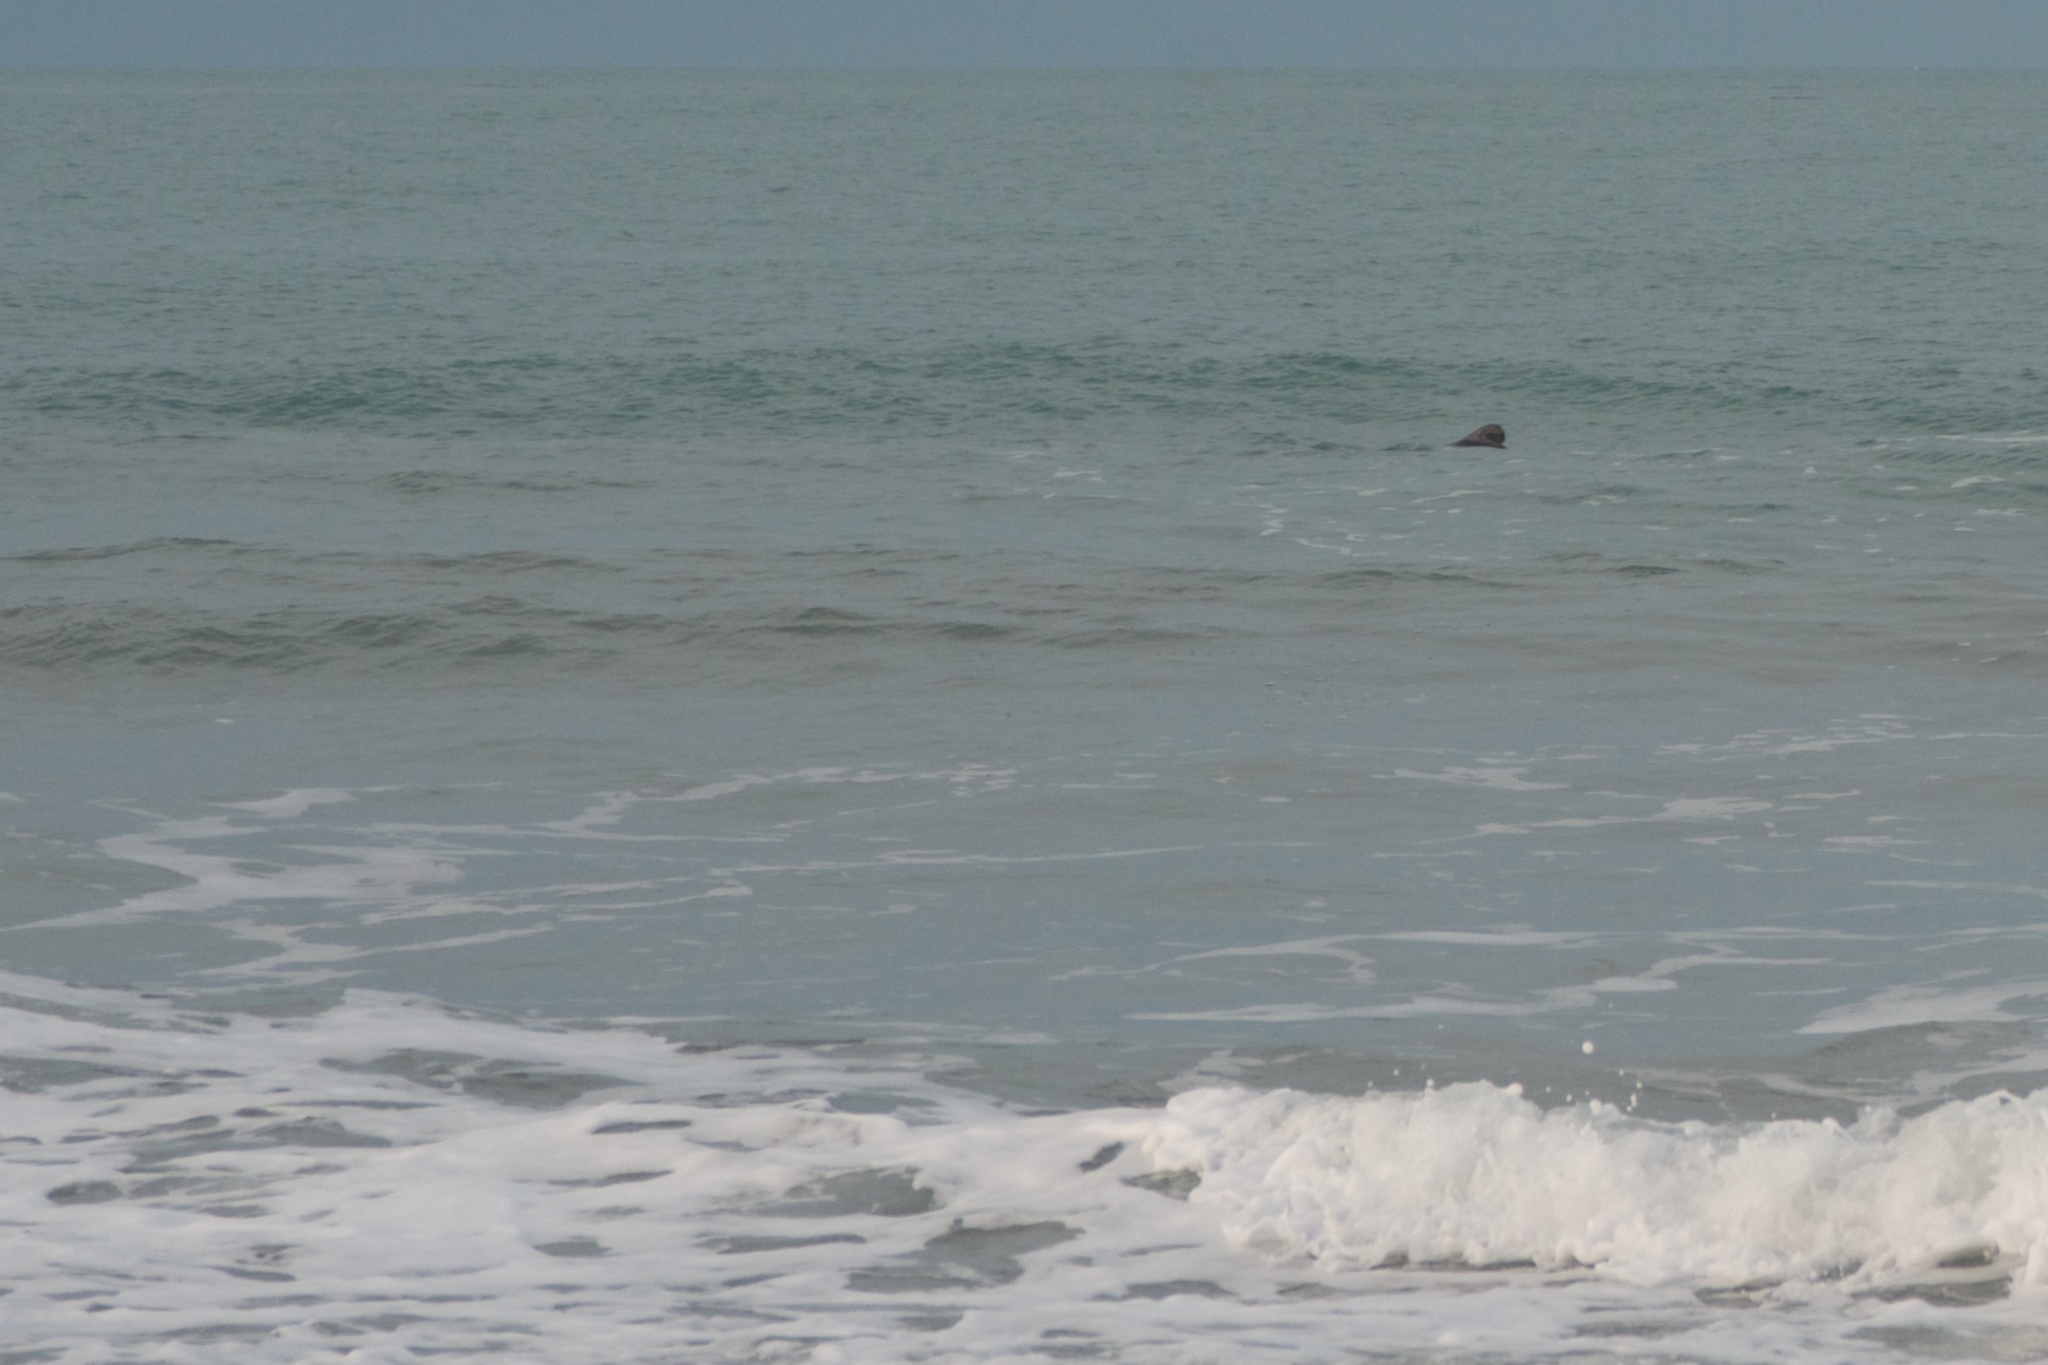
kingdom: Animalia
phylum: Chordata
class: Mammalia
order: Cetacea
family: Delphinidae
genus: Cephalorhynchus
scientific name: Cephalorhynchus hectori
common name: Hector's dolphin
